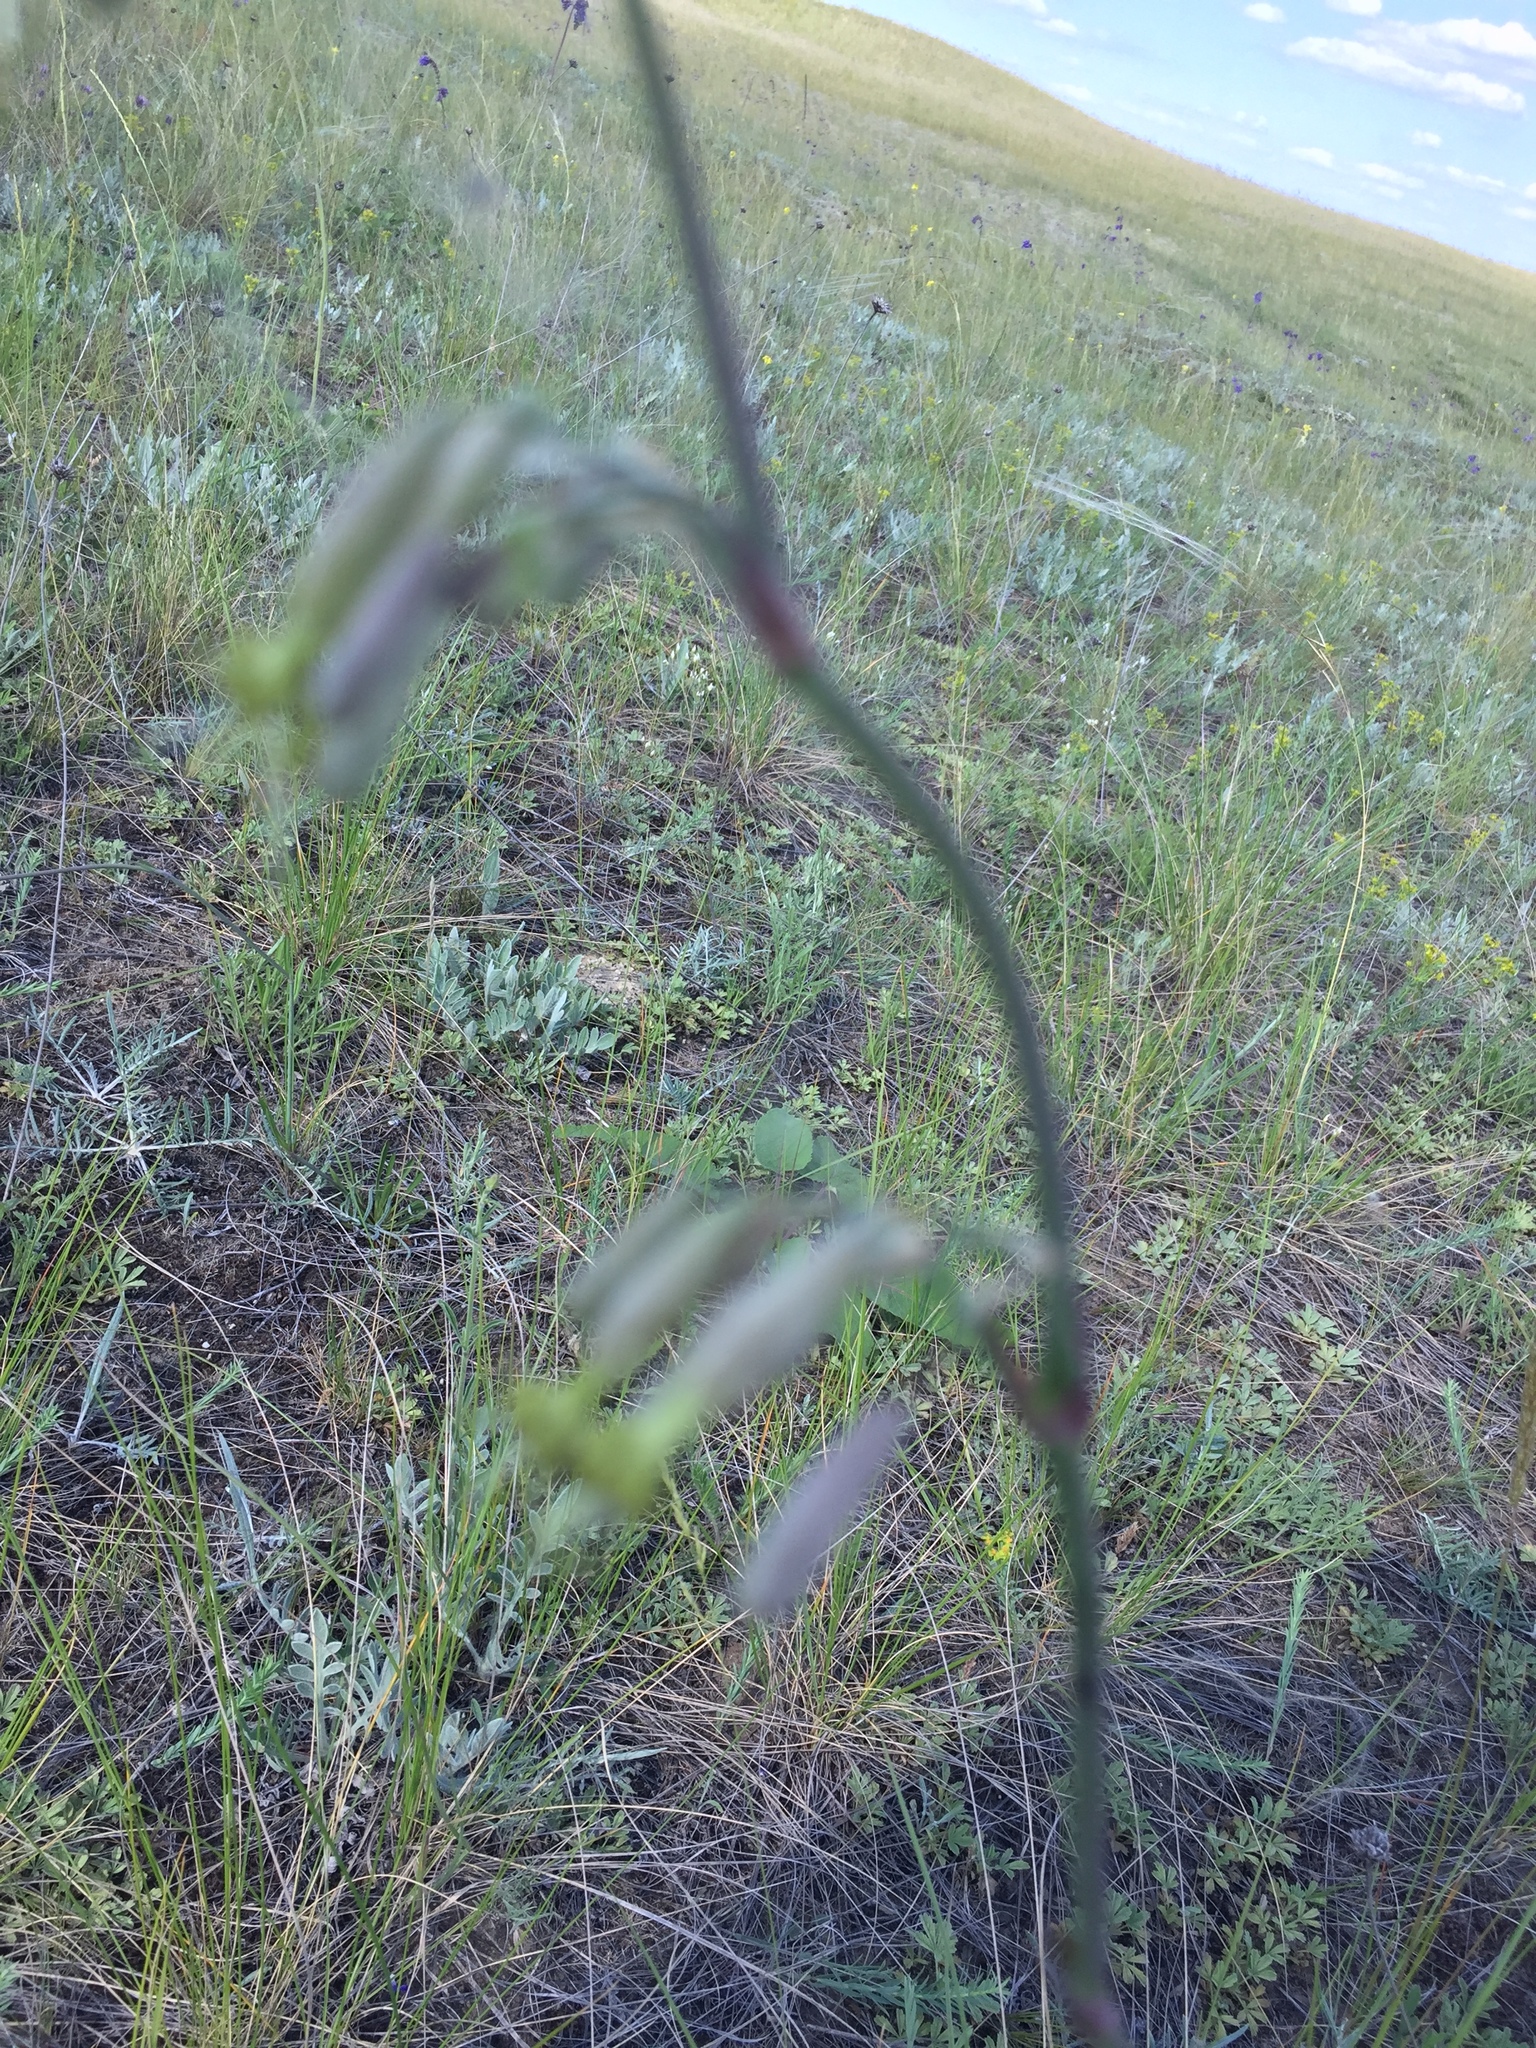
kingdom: Plantae
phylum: Tracheophyta
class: Magnoliopsida
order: Caryophyllales
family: Caryophyllaceae
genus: Silene
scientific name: Silene chlorantha
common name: Yellowgreen catchfly
